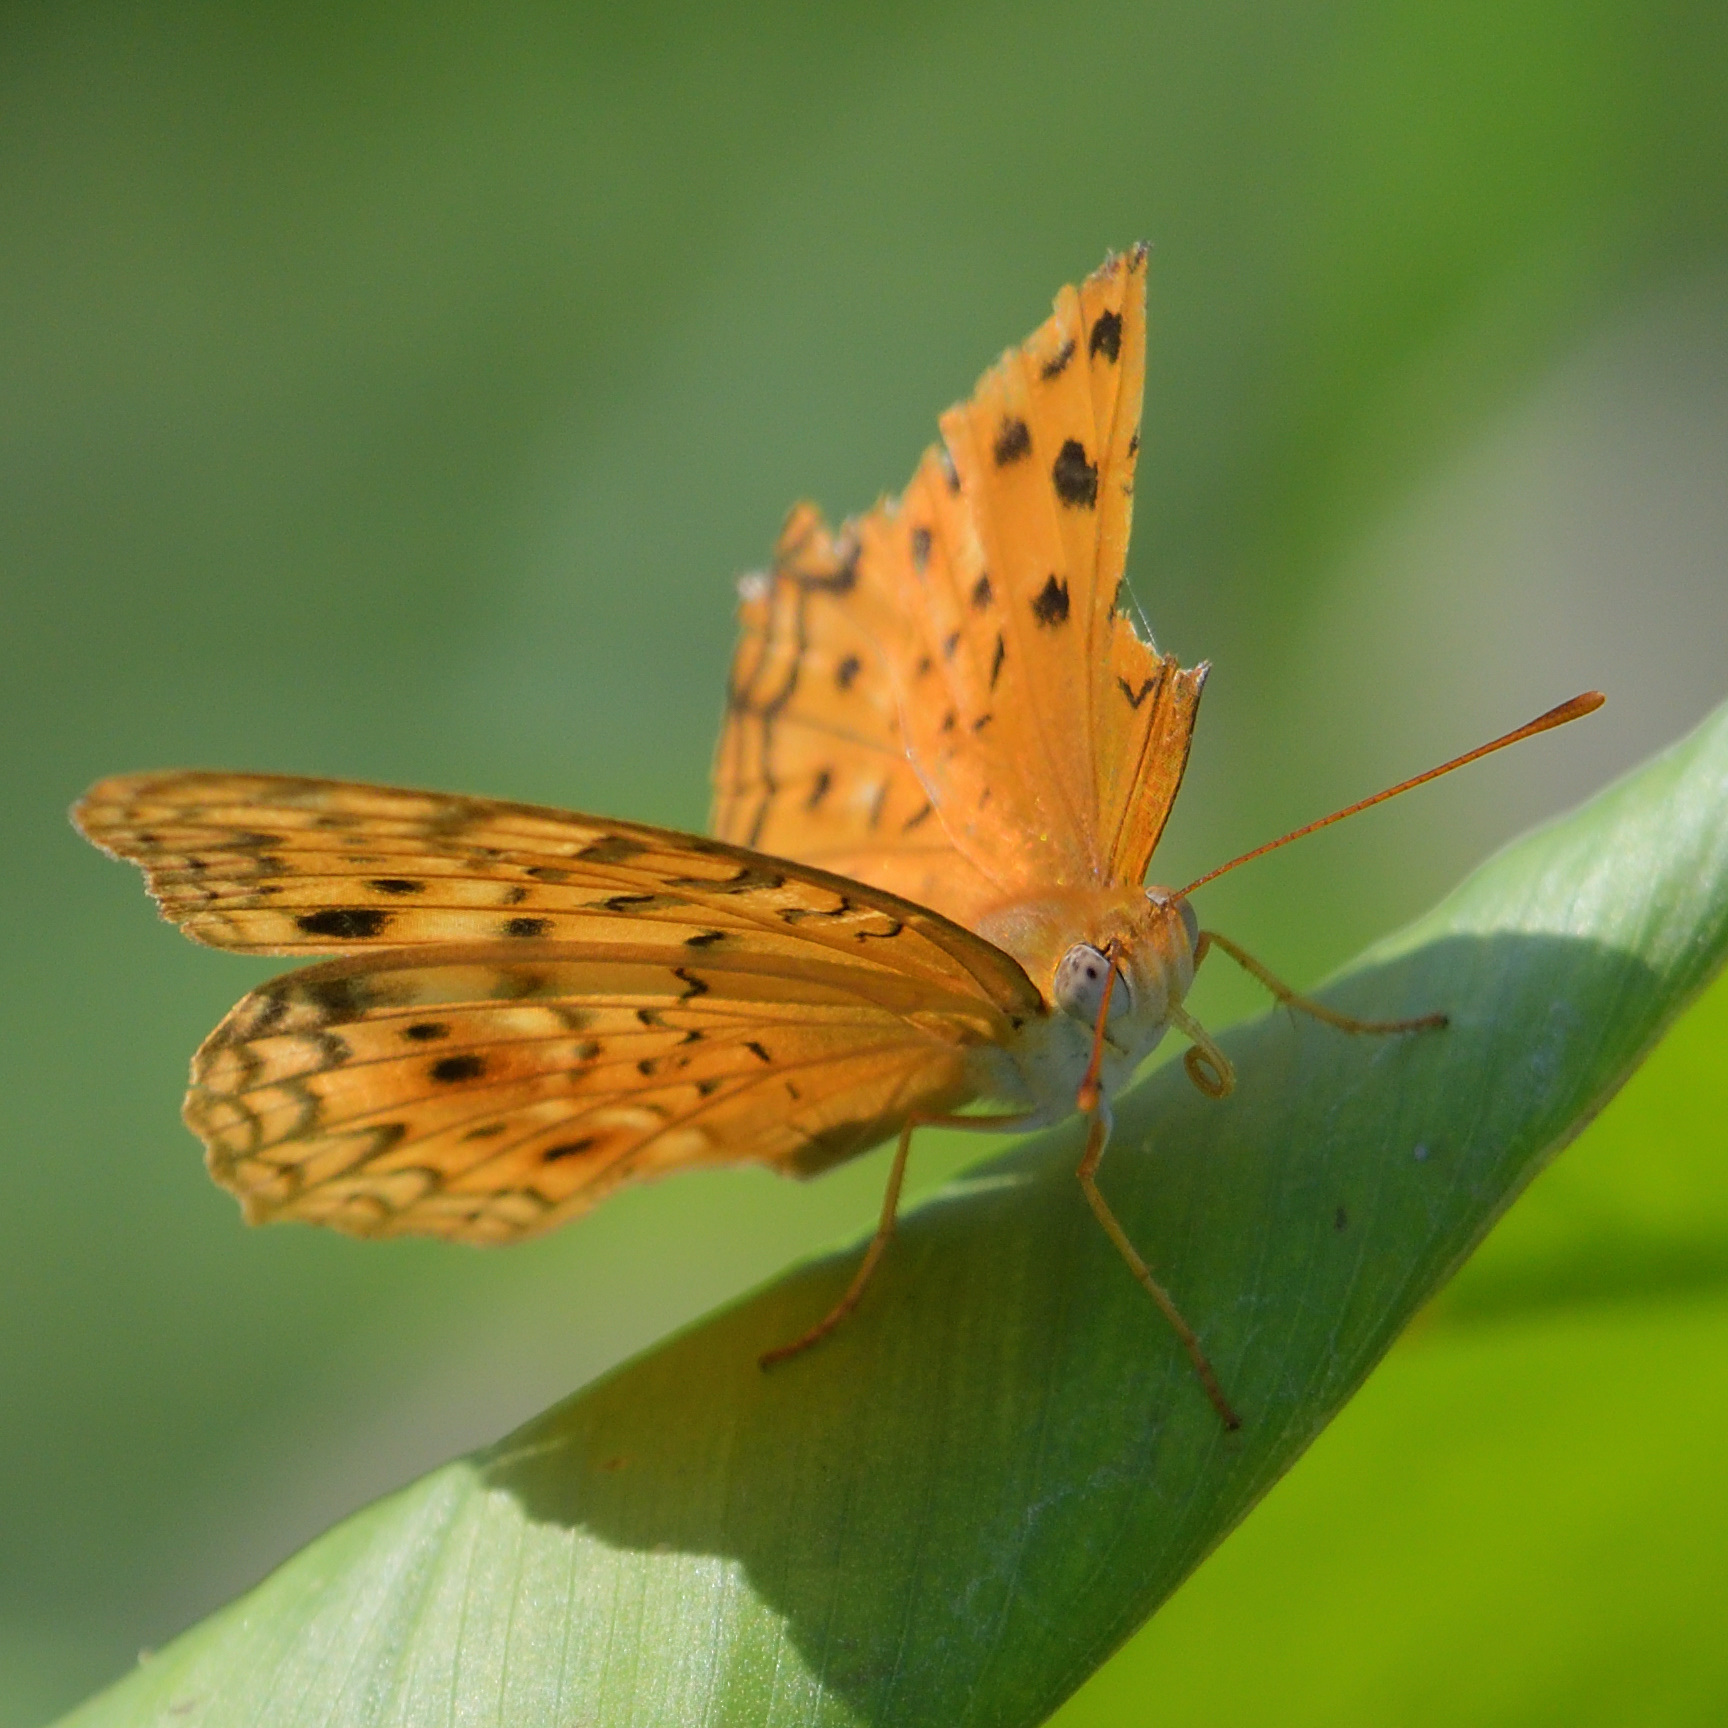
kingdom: Animalia
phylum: Arthropoda
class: Insecta
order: Lepidoptera
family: Nymphalidae
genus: Phalanta
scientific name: Phalanta phalantha
